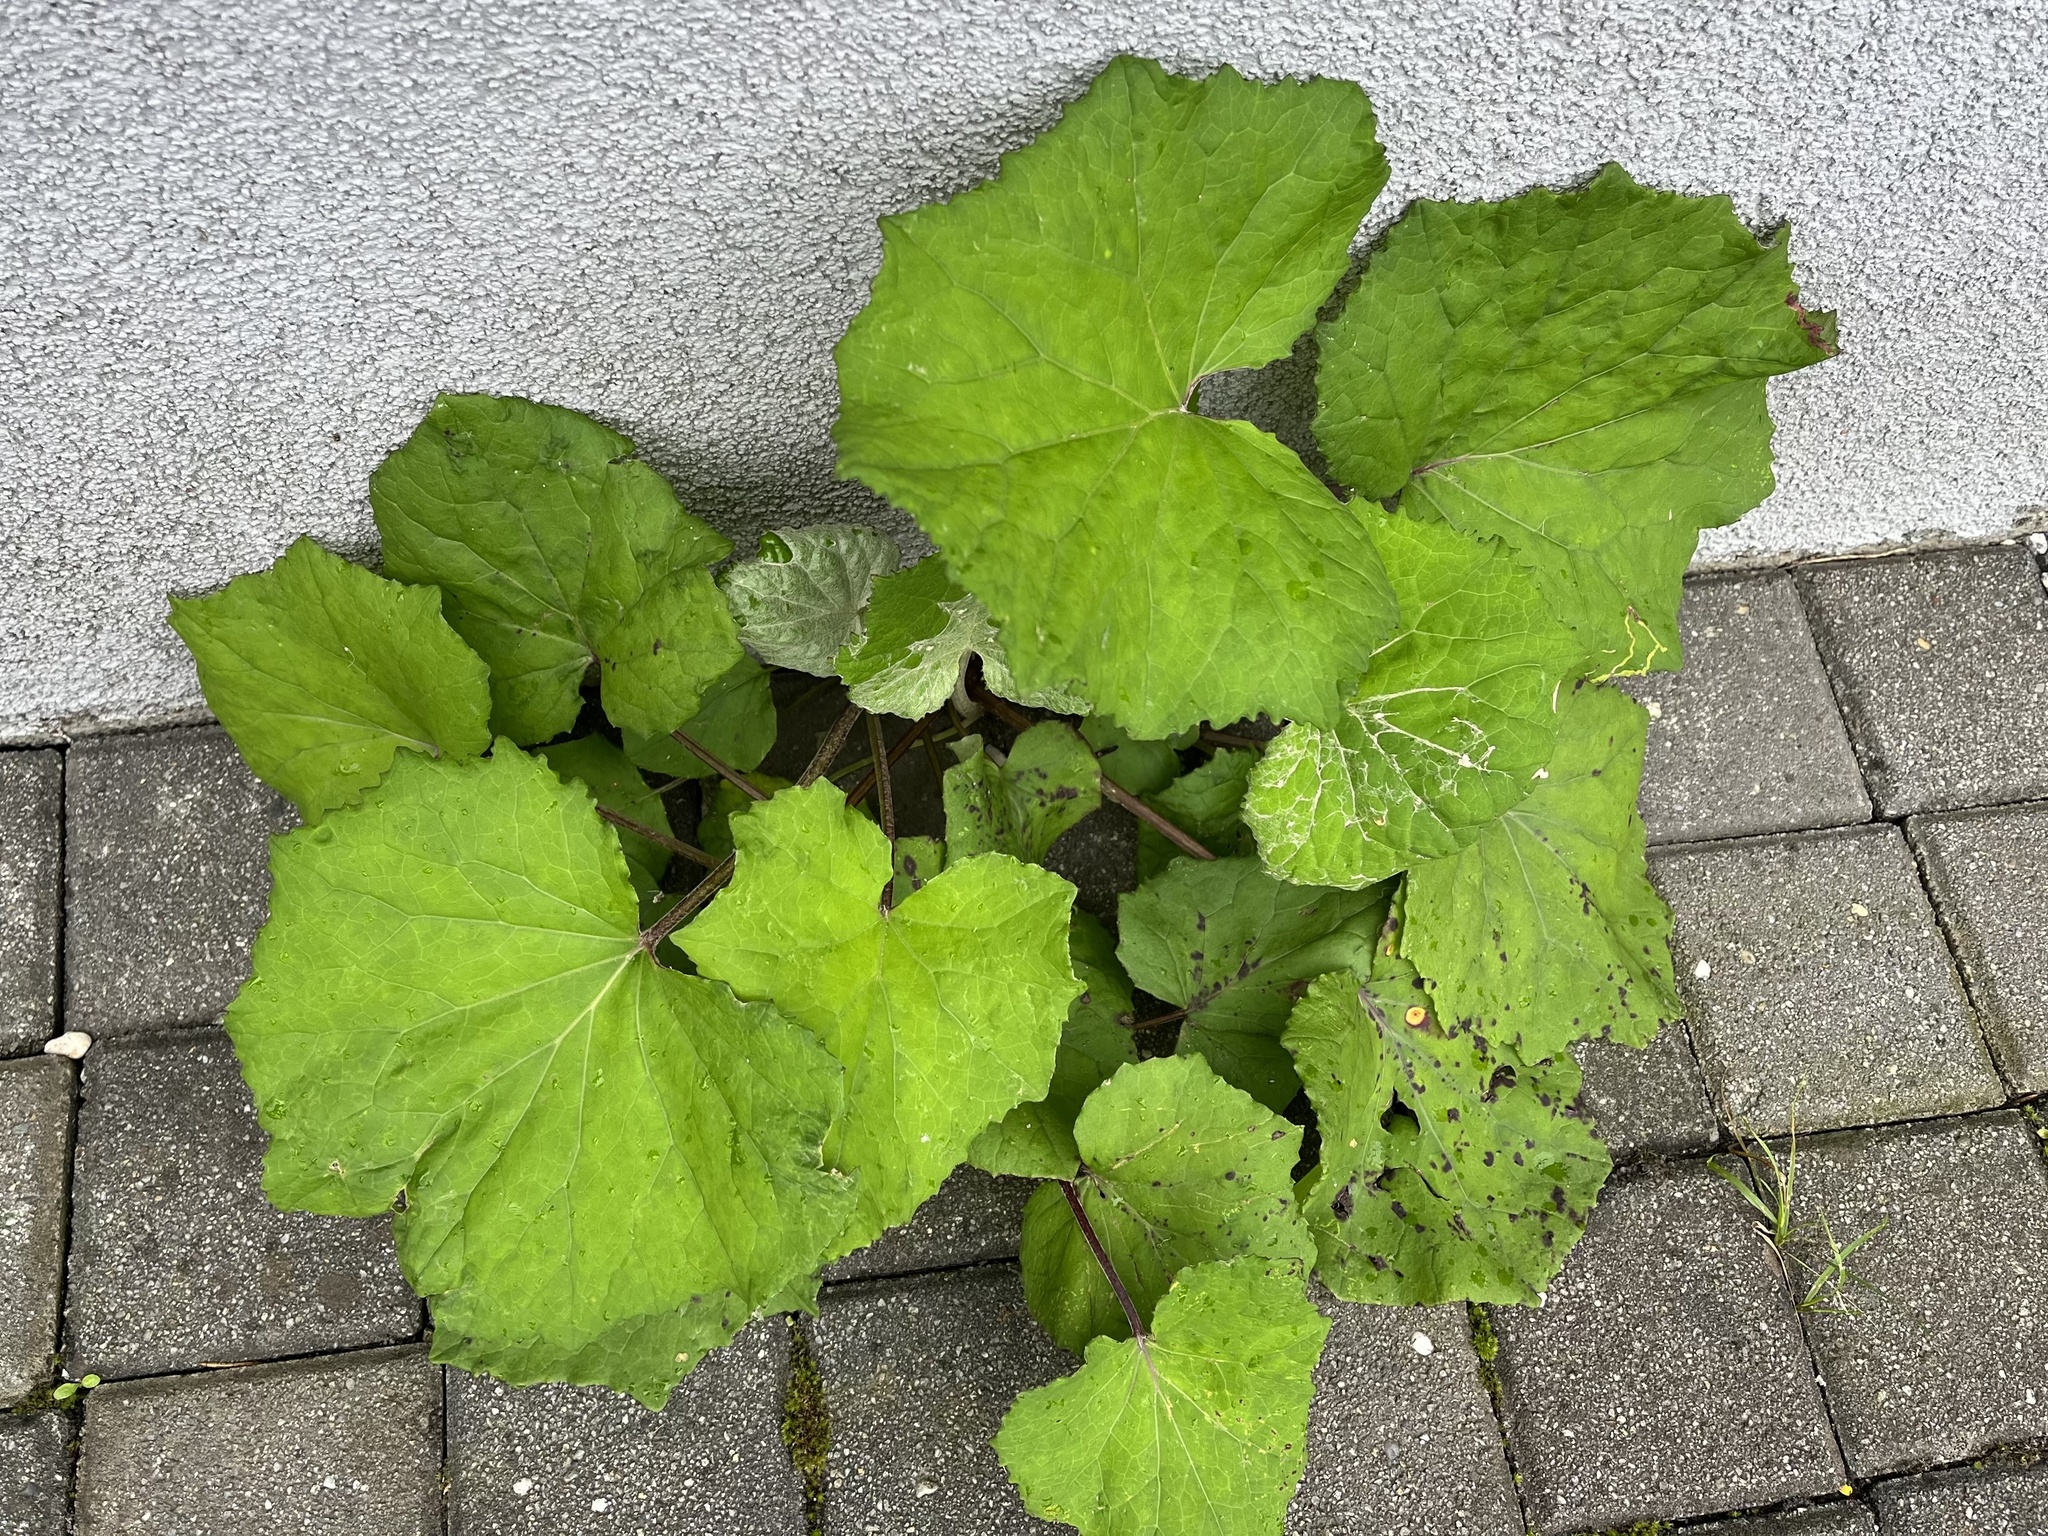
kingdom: Plantae
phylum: Tracheophyta
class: Magnoliopsida
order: Asterales
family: Asteraceae
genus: Tussilago
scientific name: Tussilago farfara
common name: Coltsfoot
